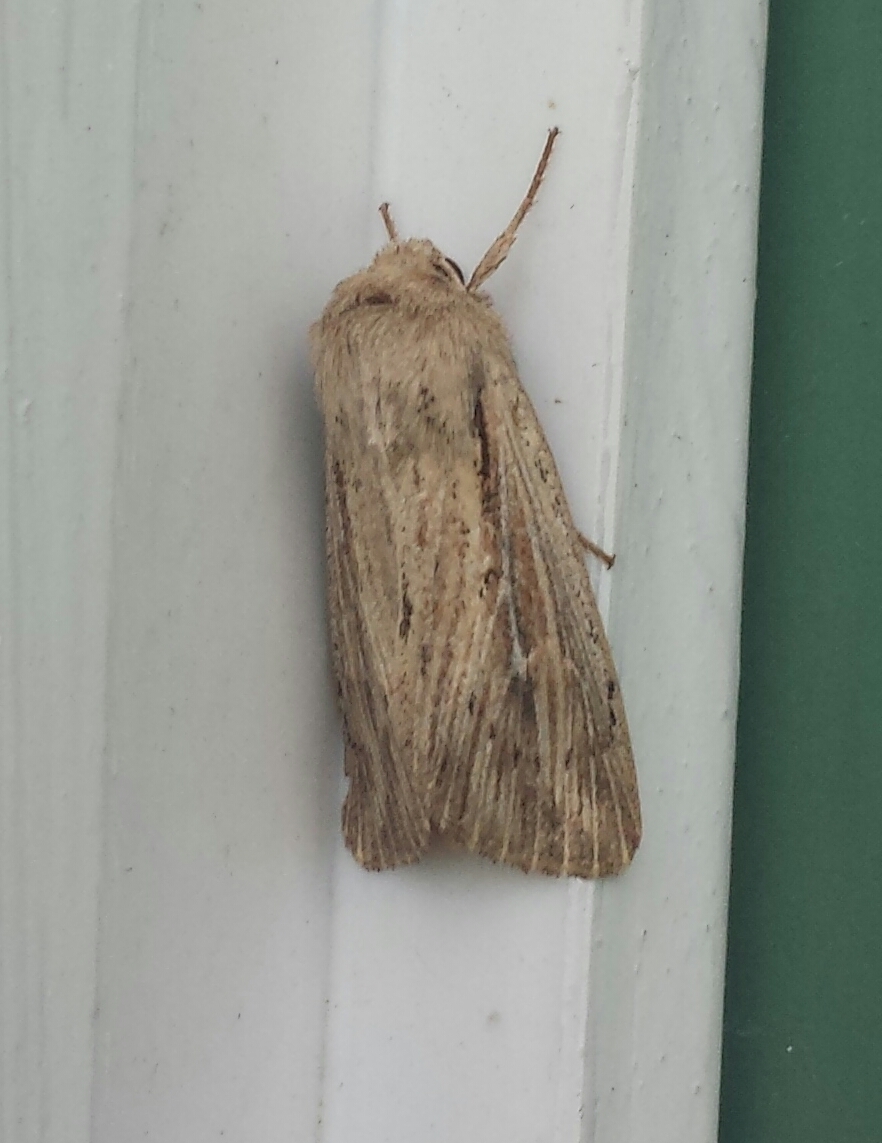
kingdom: Animalia
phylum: Arthropoda
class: Insecta
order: Lepidoptera
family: Noctuidae
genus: Leucania
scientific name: Leucania insueta
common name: Heterodox wainscot moth
